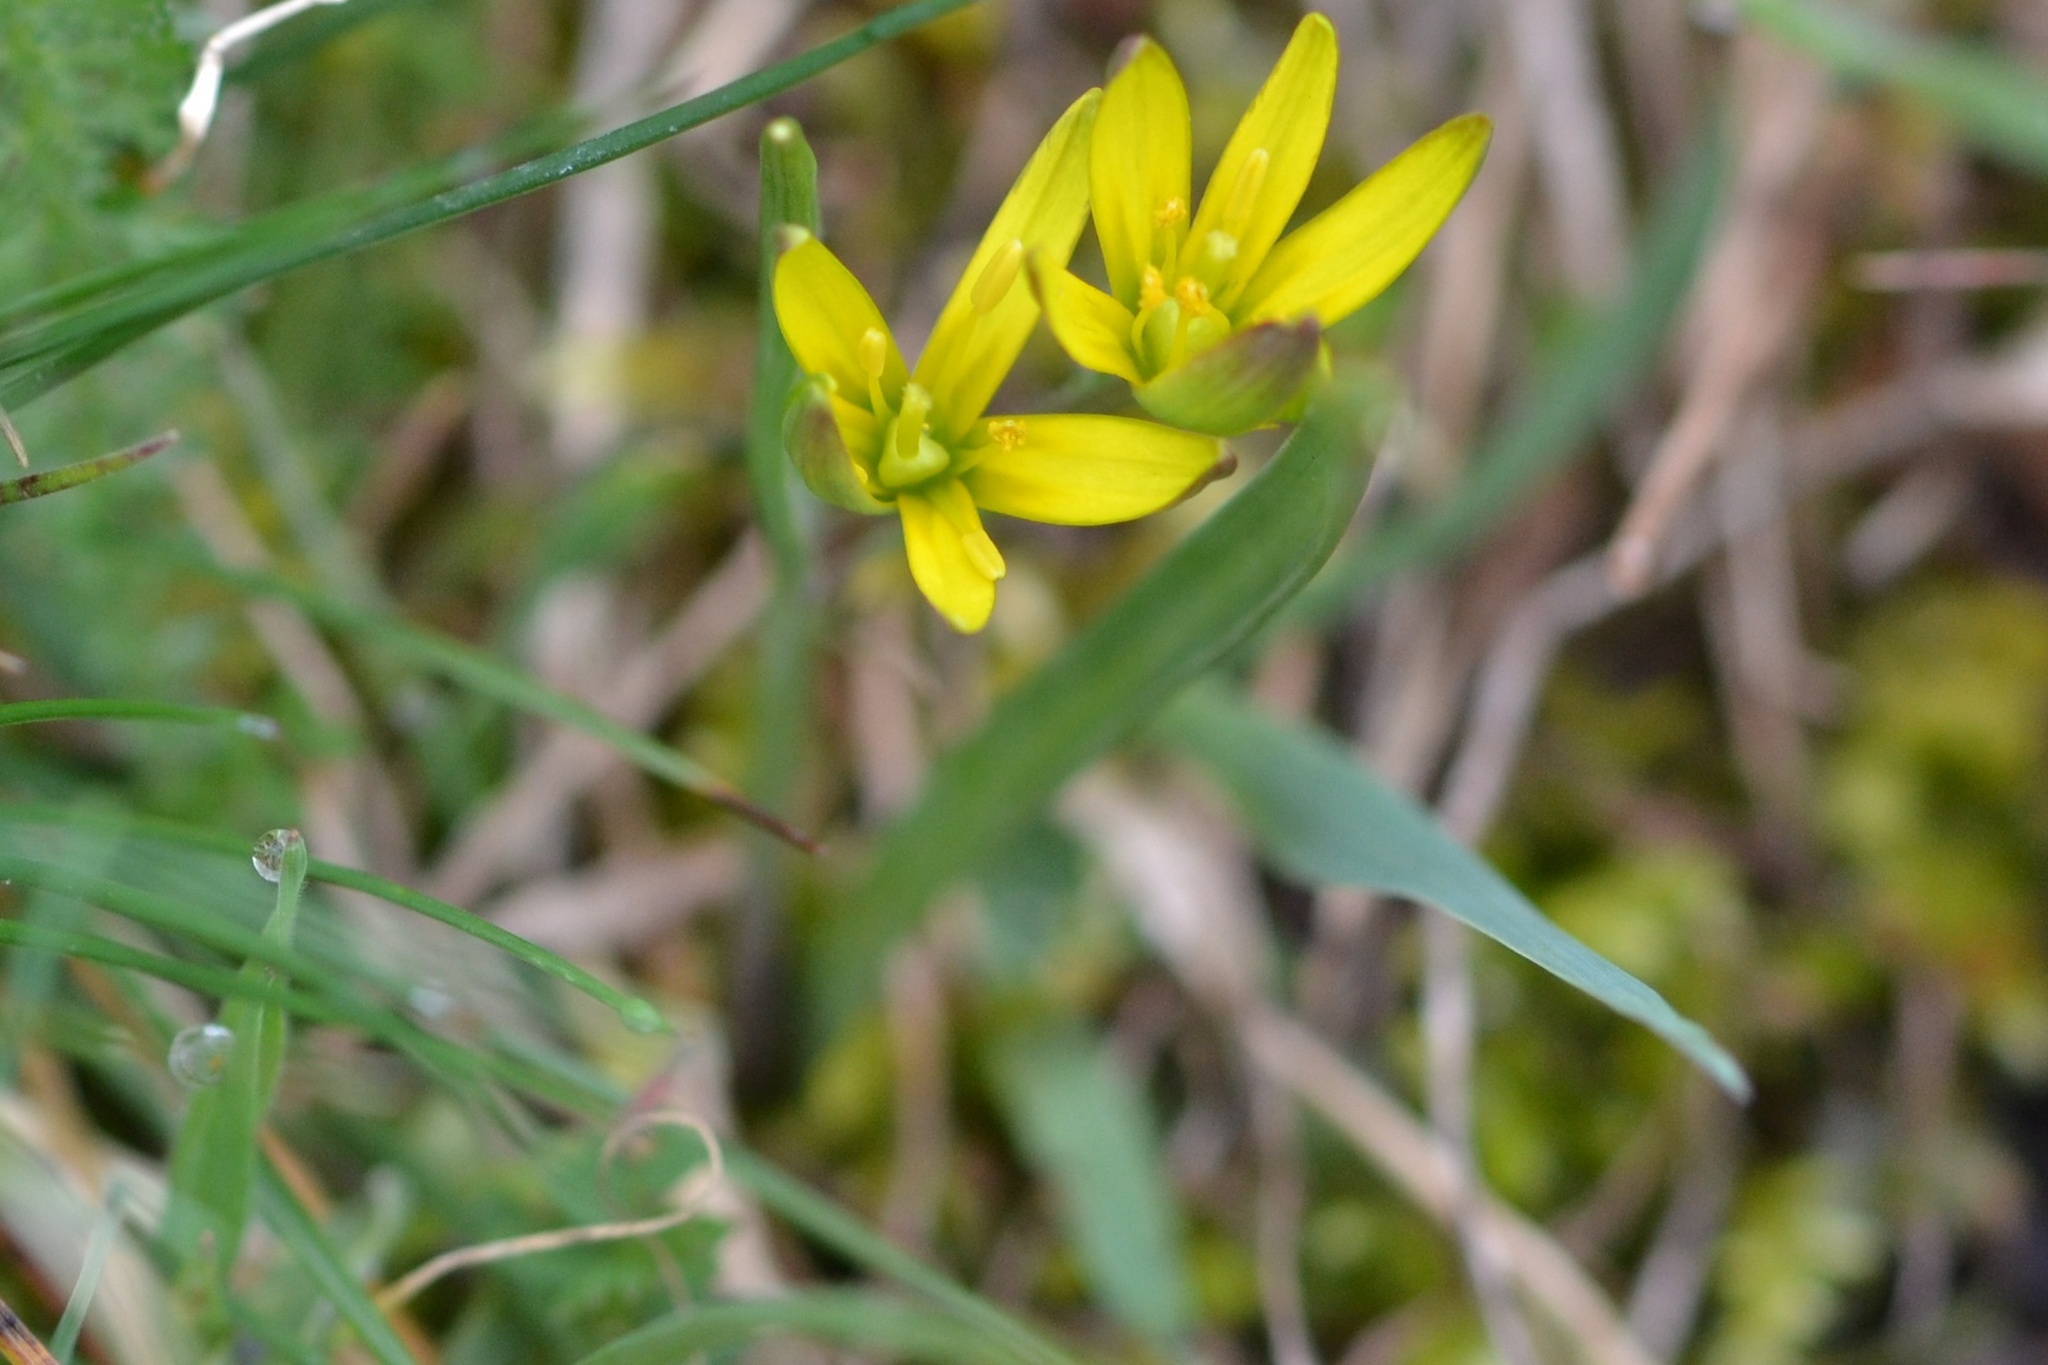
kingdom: Plantae
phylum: Tracheophyta
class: Liliopsida
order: Liliales
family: Liliaceae
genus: Gagea
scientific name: Gagea pratensis
